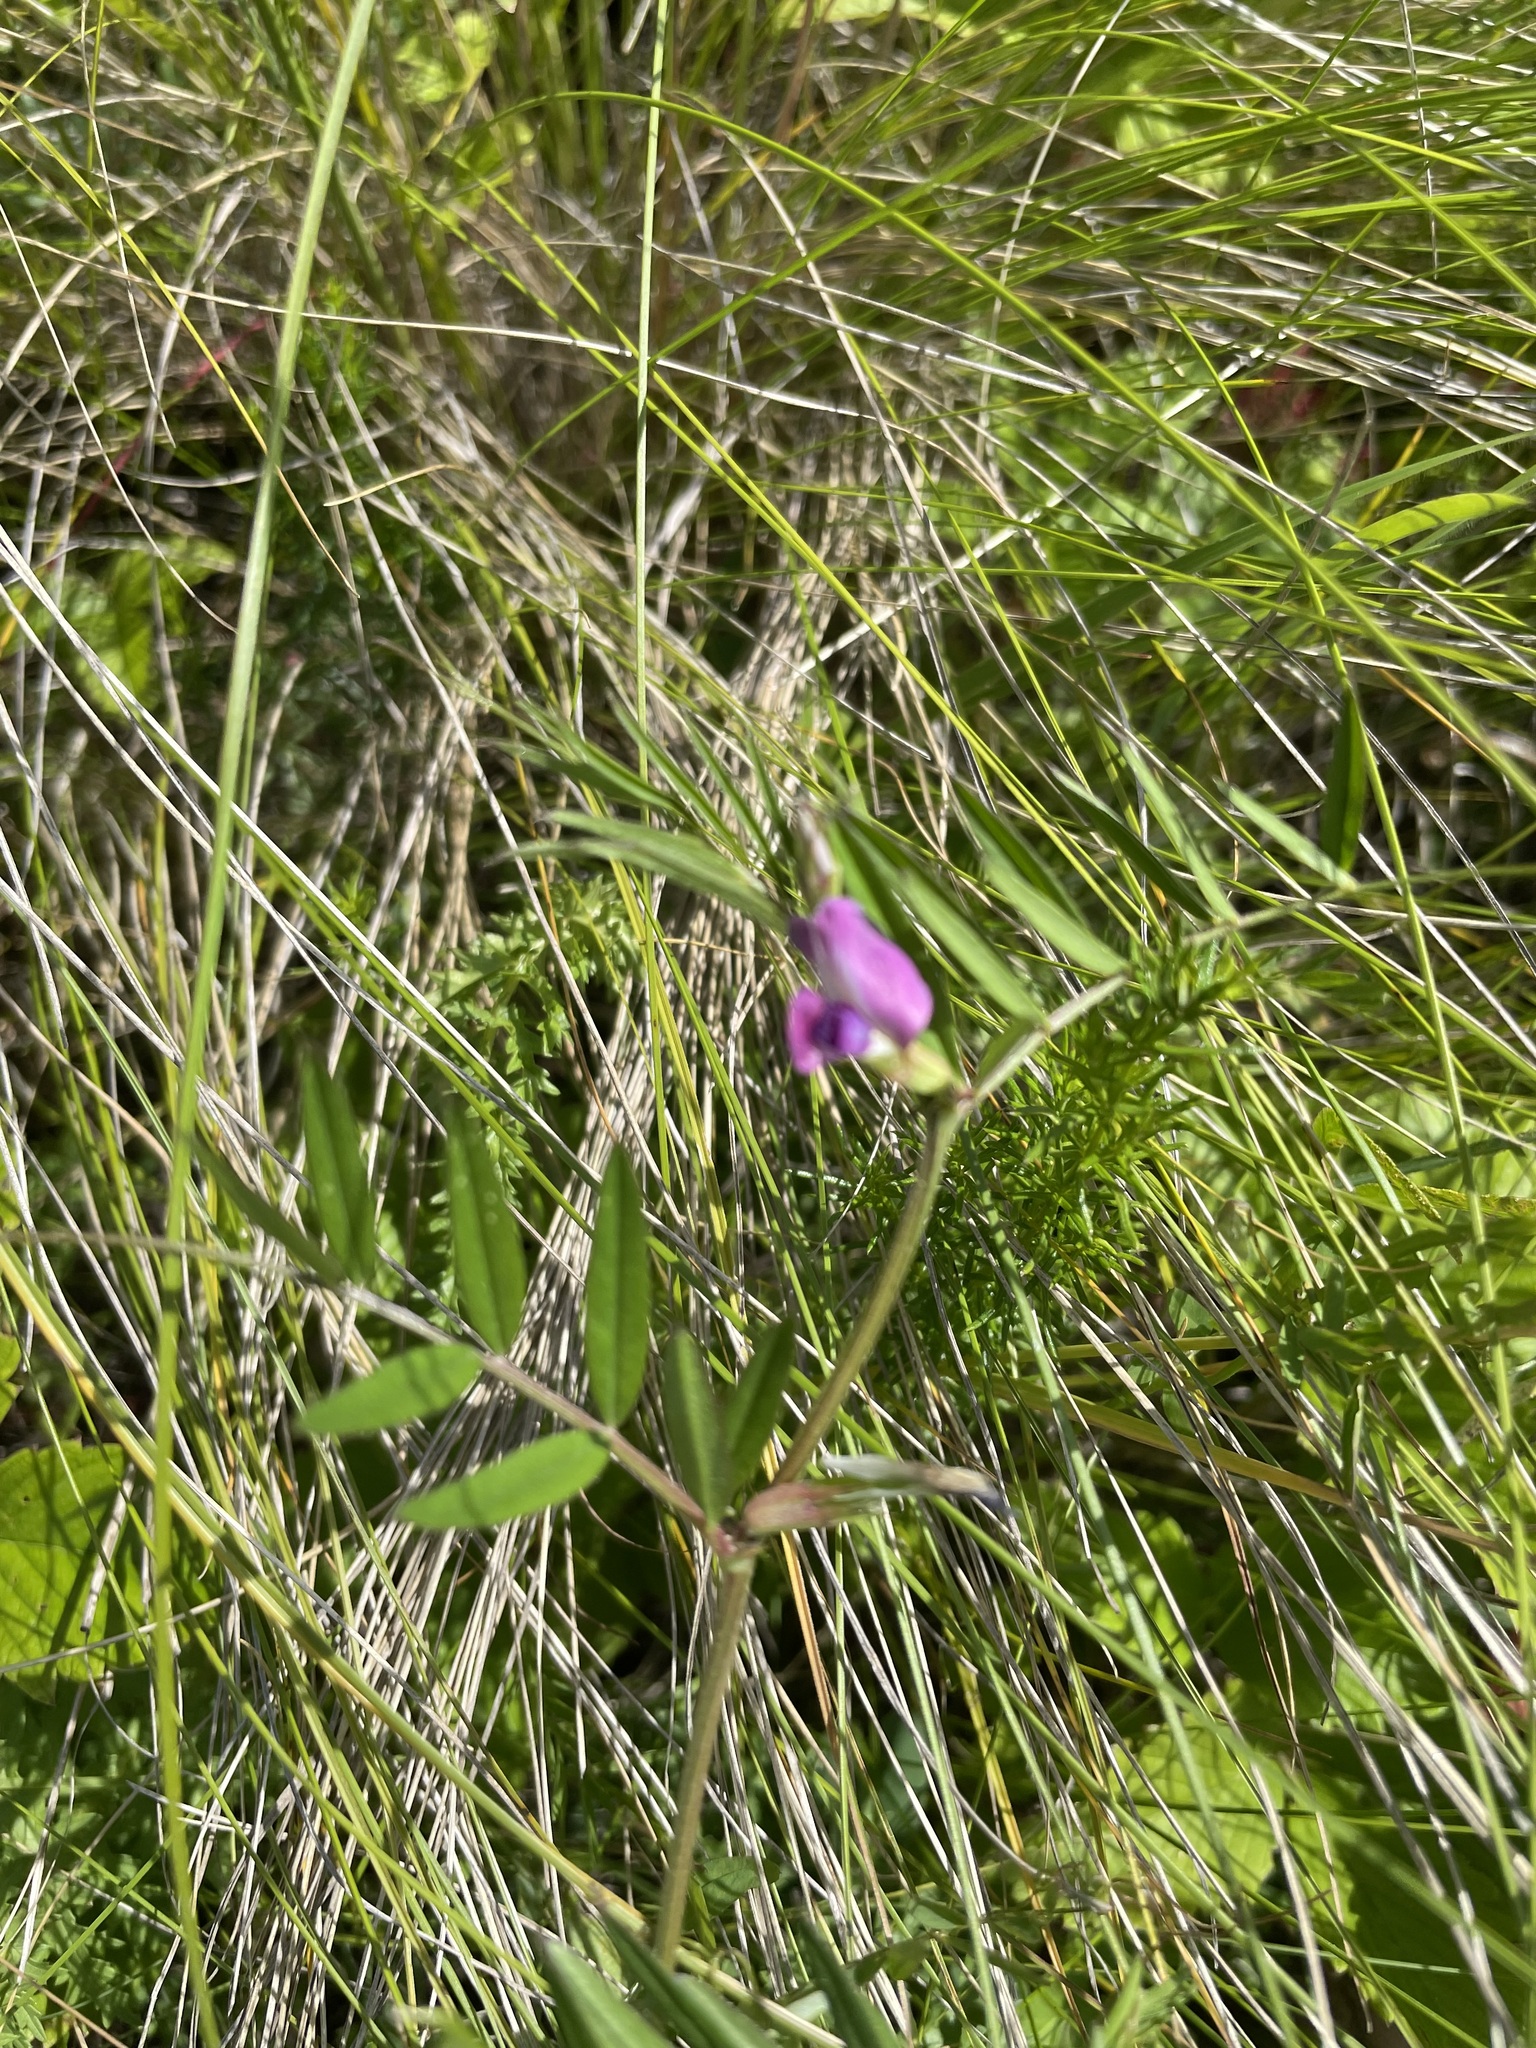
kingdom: Plantae
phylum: Tracheophyta
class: Magnoliopsida
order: Fabales
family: Fabaceae
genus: Vicia
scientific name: Vicia sativa
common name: Garden vetch
